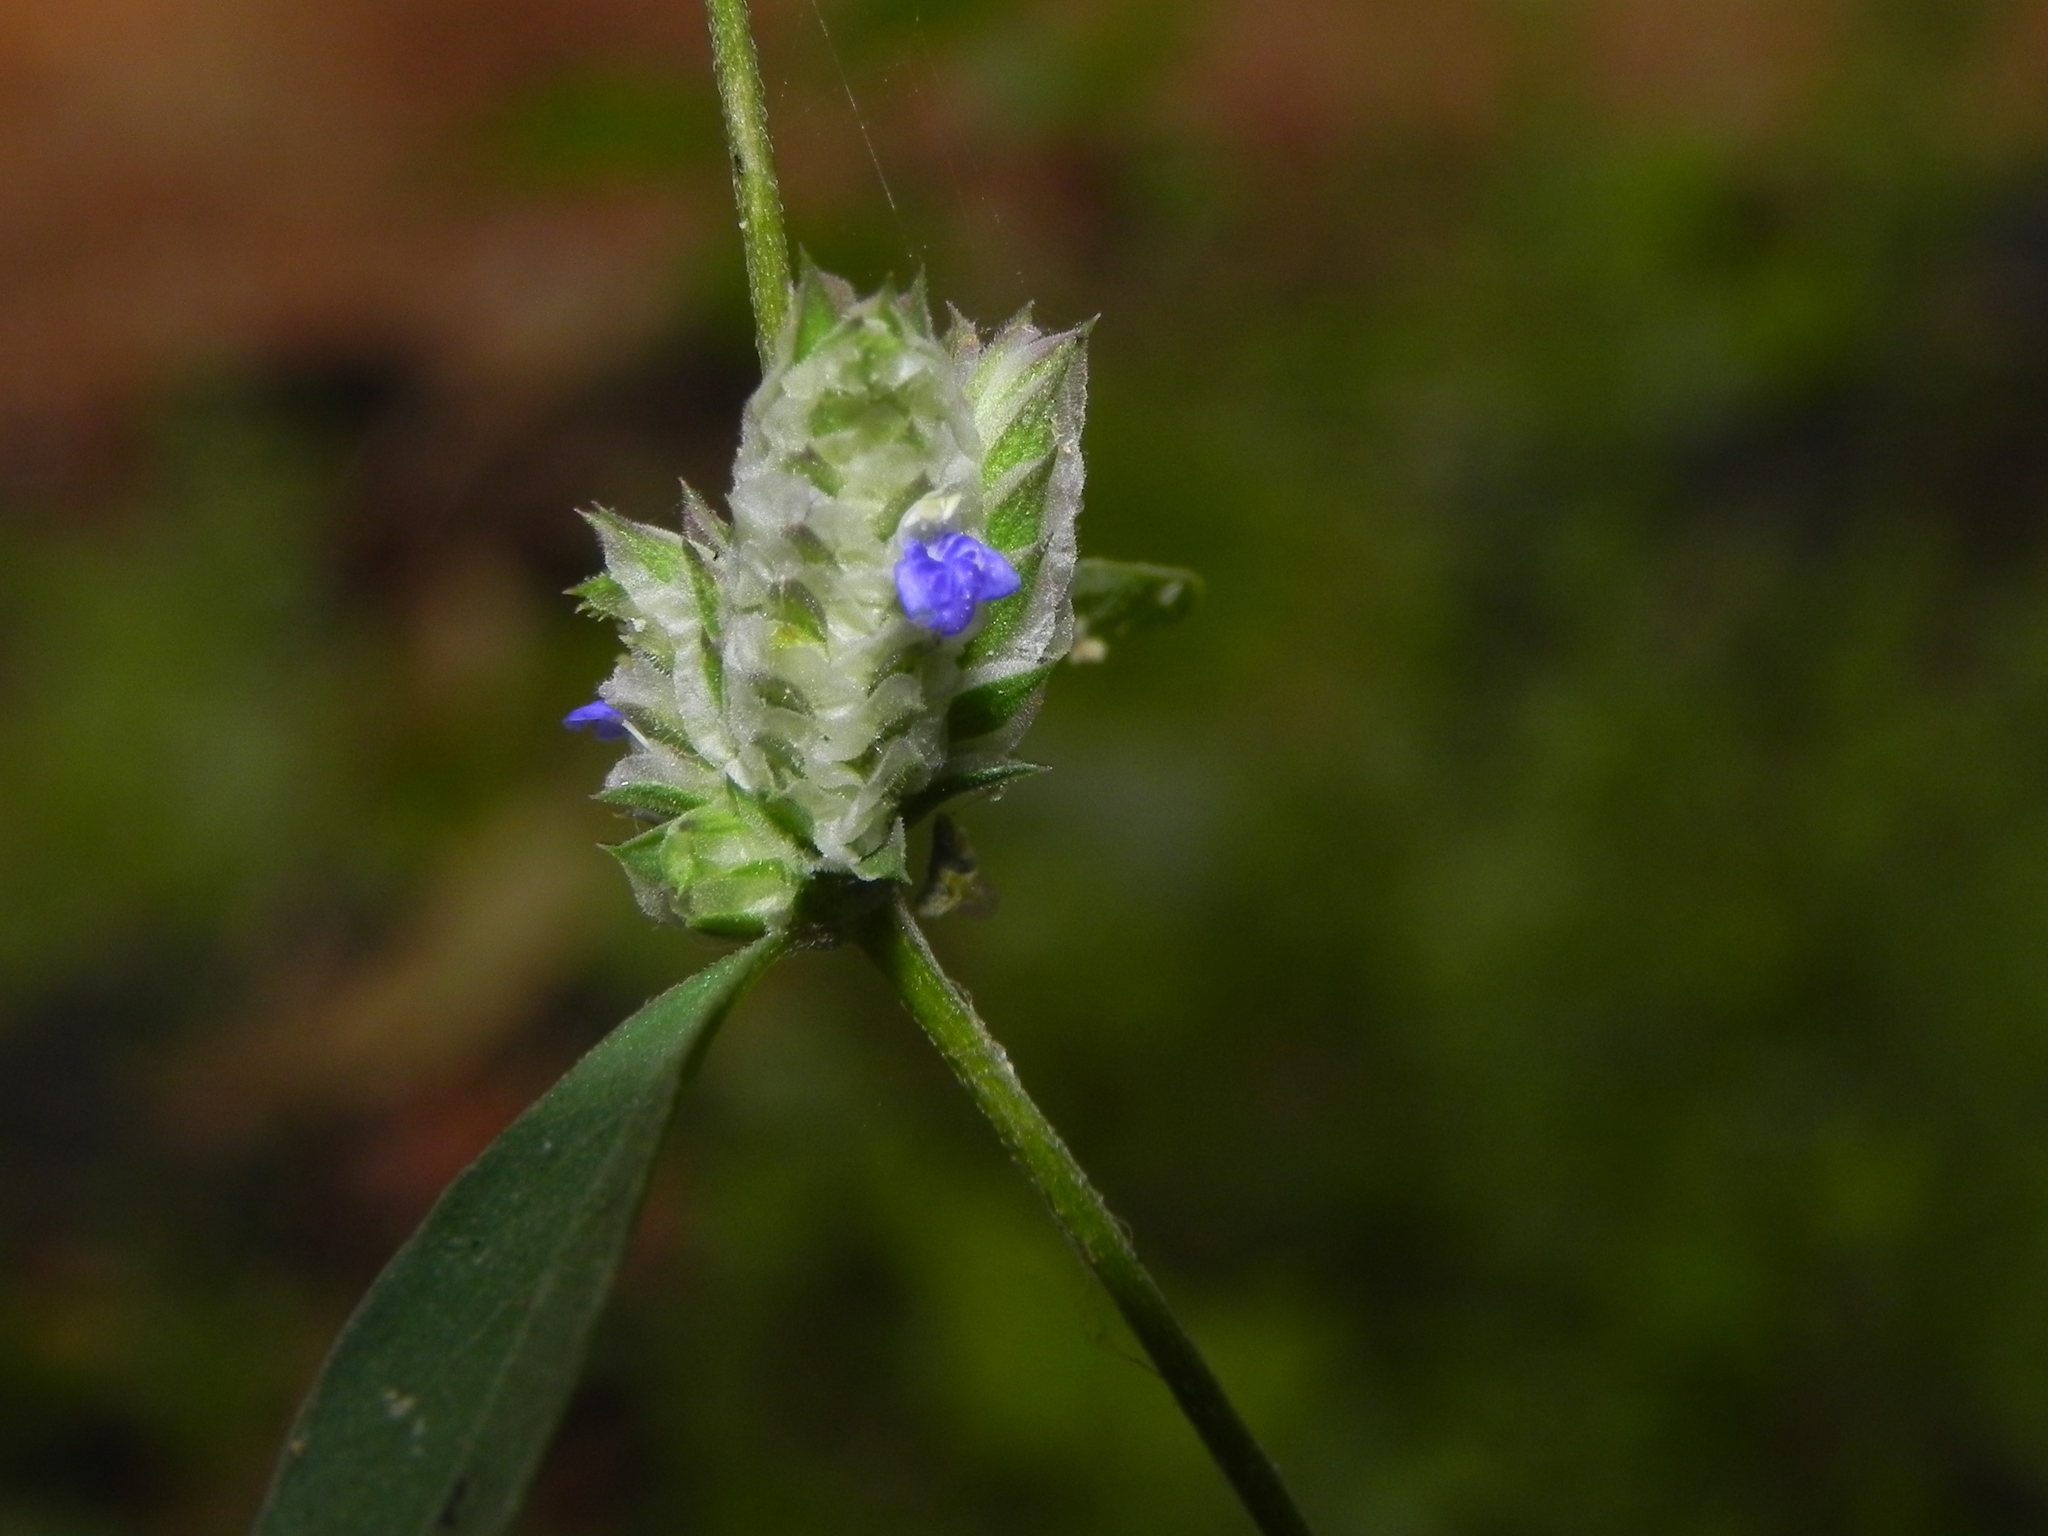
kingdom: Plantae
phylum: Tracheophyta
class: Magnoliopsida
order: Lamiales
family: Acanthaceae
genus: Rungia
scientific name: Rungia pectinata
